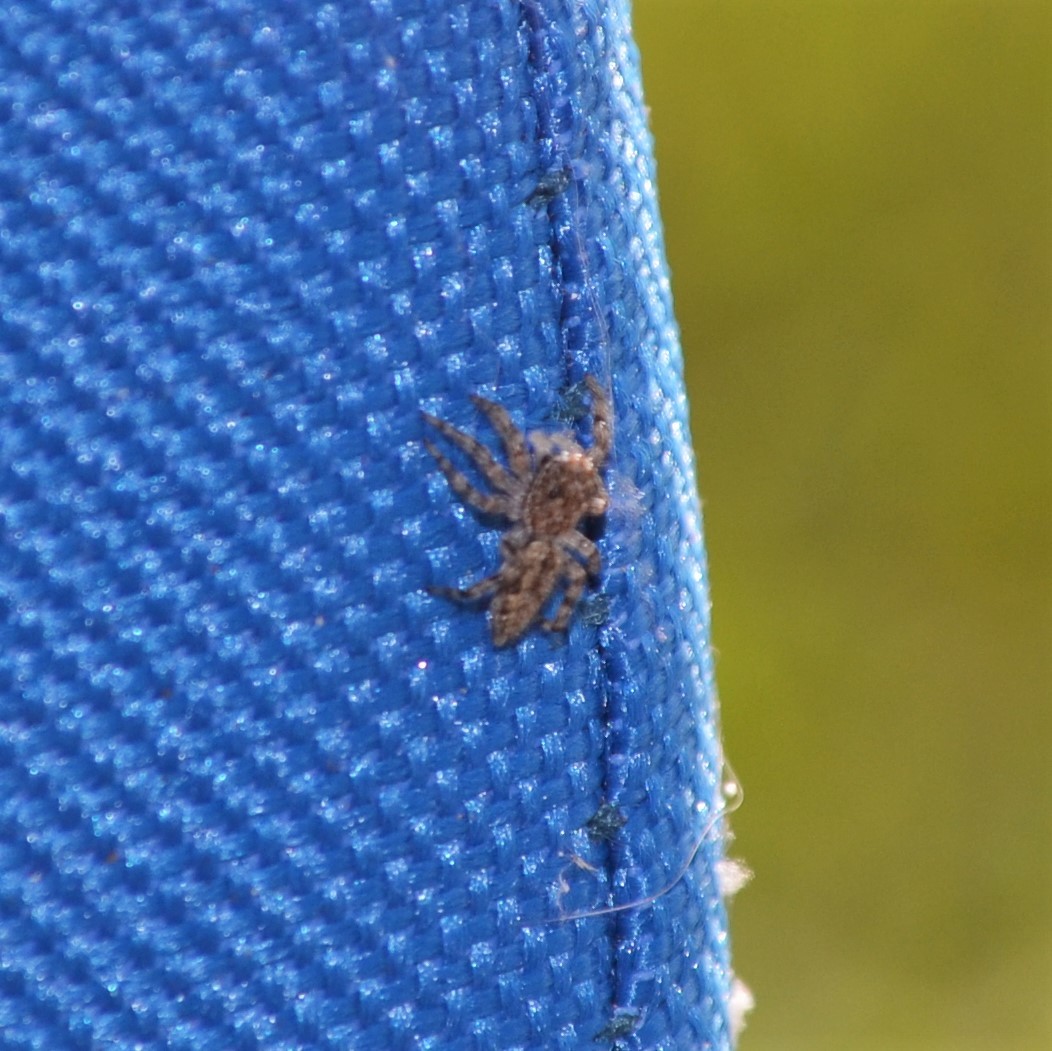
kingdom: Animalia
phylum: Arthropoda
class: Arachnida
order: Araneae
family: Salticidae
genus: Platycryptus
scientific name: Platycryptus undatus
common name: Tan jumping spider
